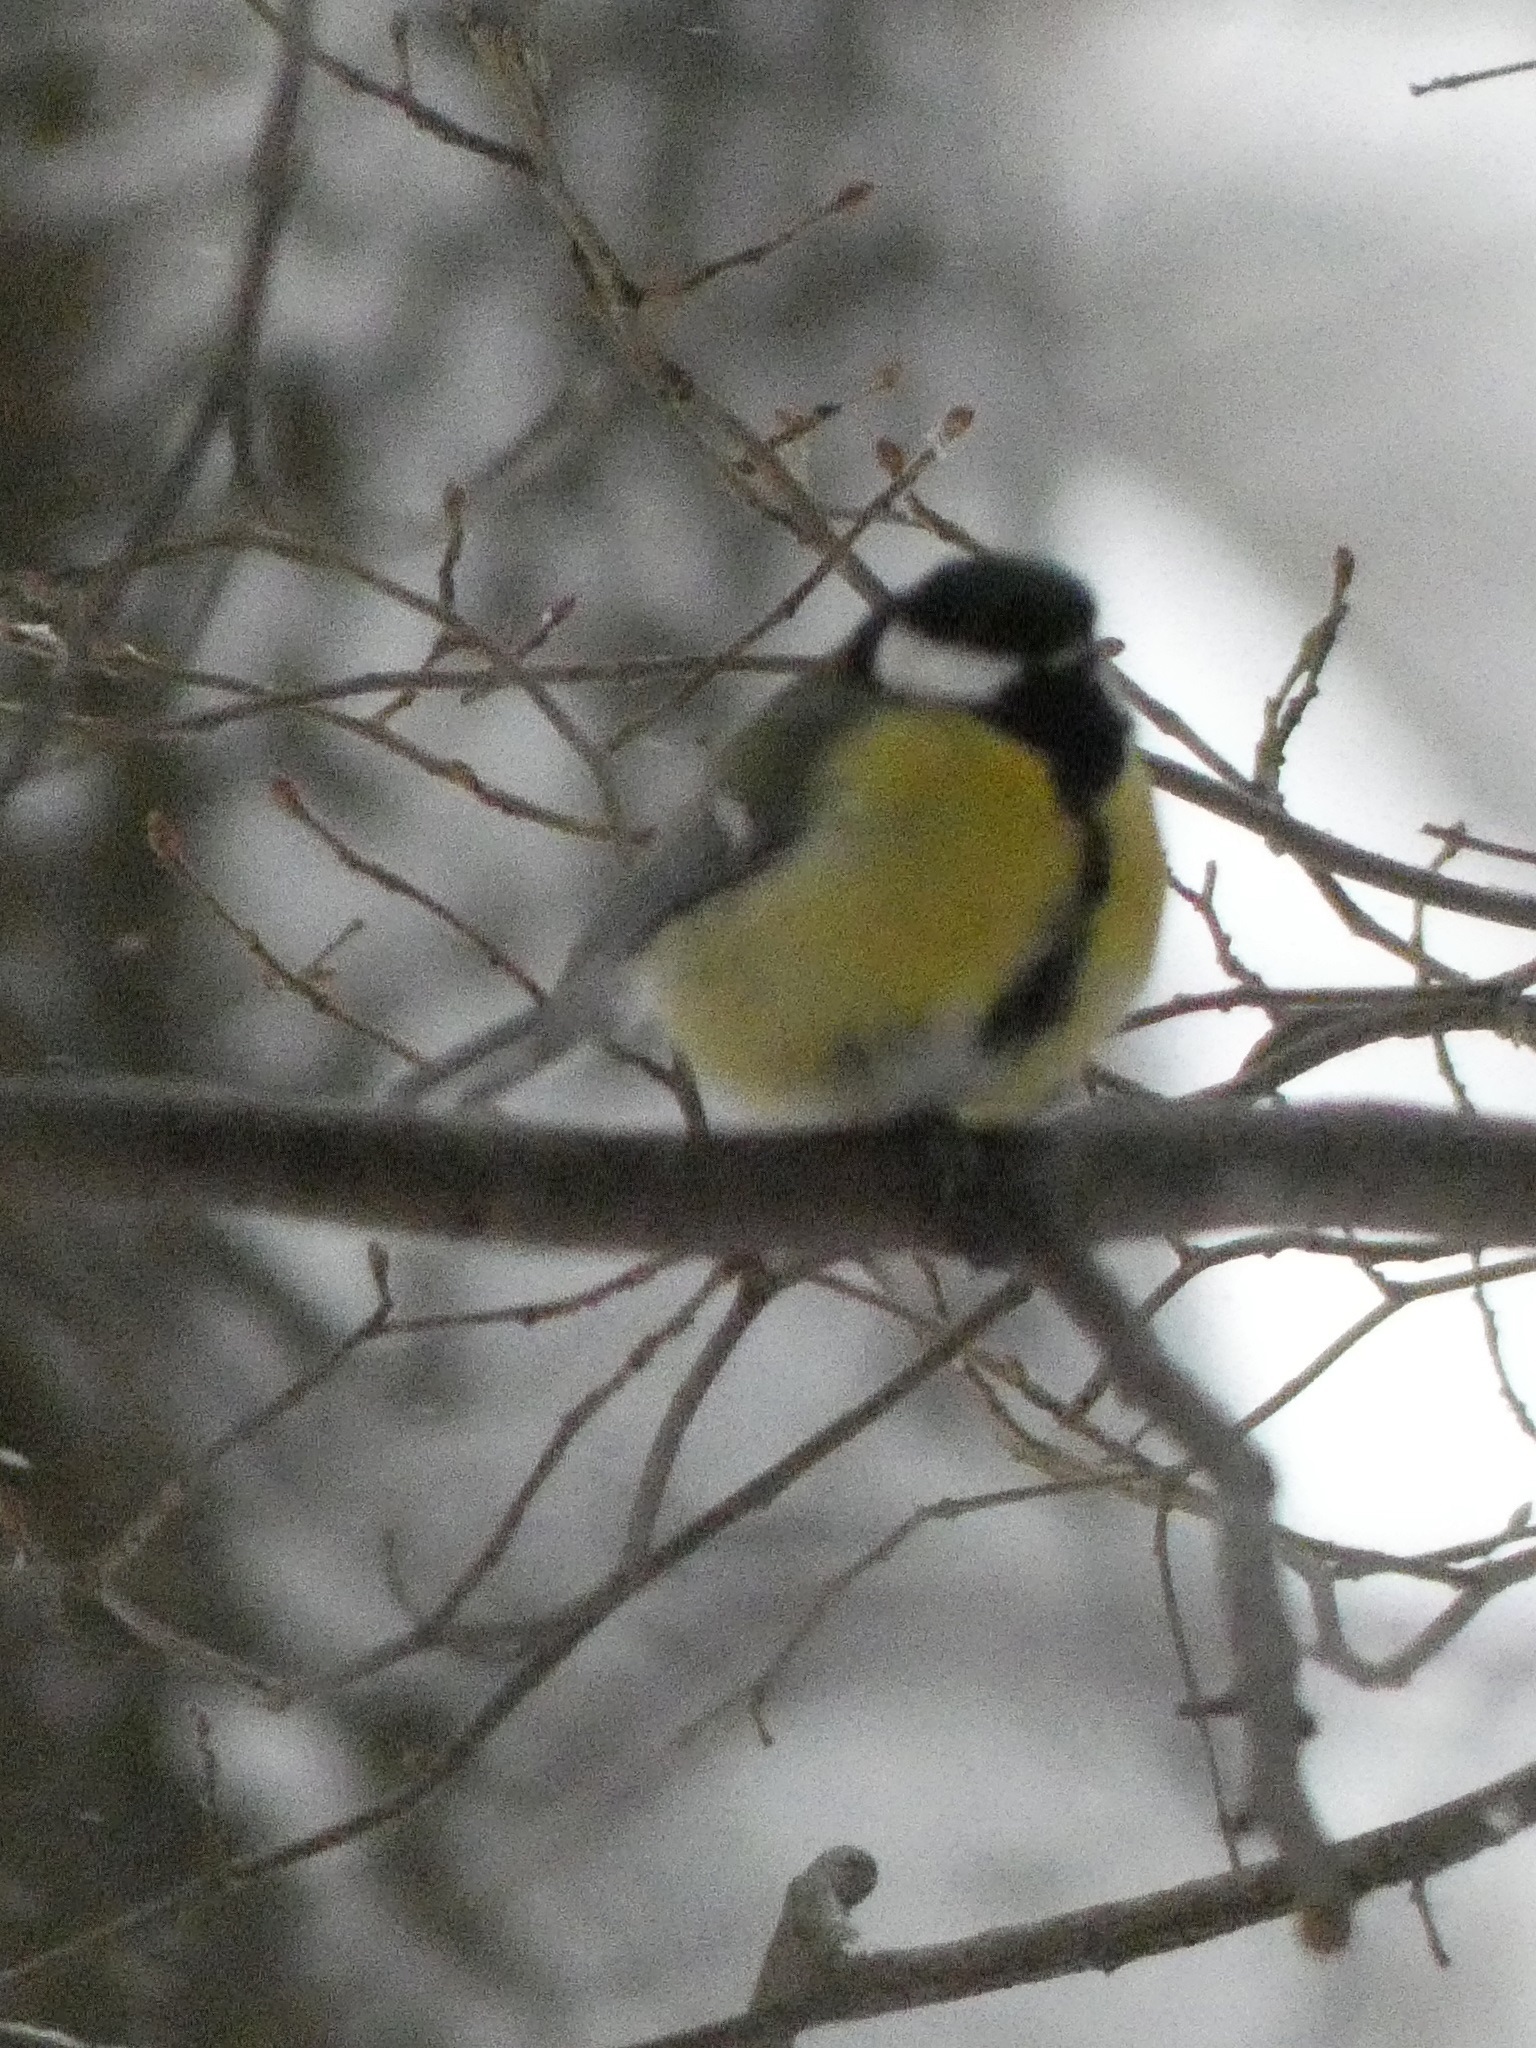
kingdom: Animalia
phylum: Chordata
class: Aves
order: Passeriformes
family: Paridae
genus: Parus
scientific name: Parus major
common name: Great tit
